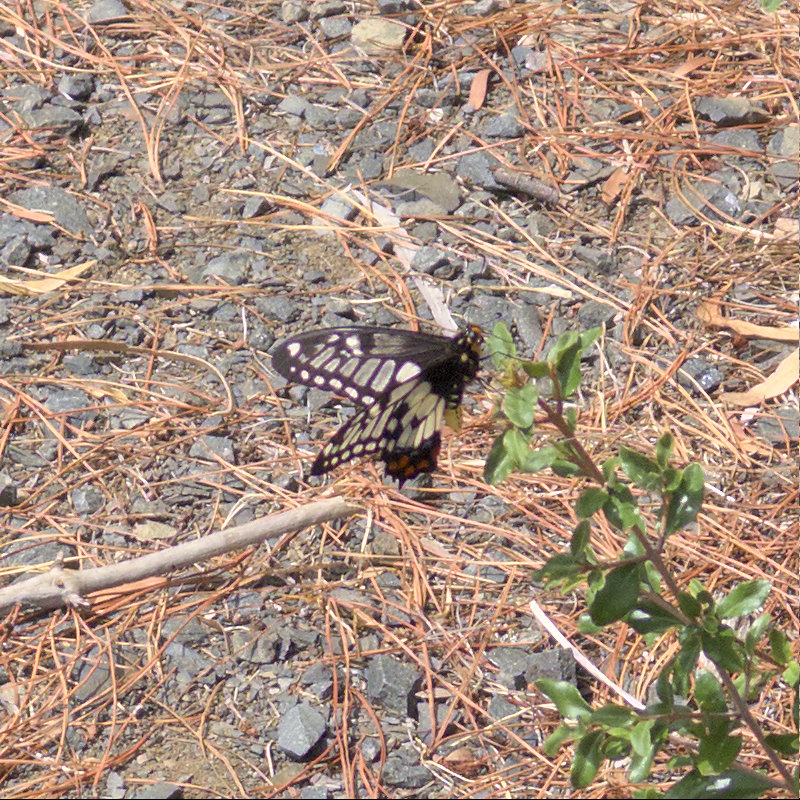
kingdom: Animalia
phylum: Arthropoda
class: Insecta
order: Lepidoptera
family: Papilionidae
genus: Papilio
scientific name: Papilio anactus
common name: Dingy swallowtail
